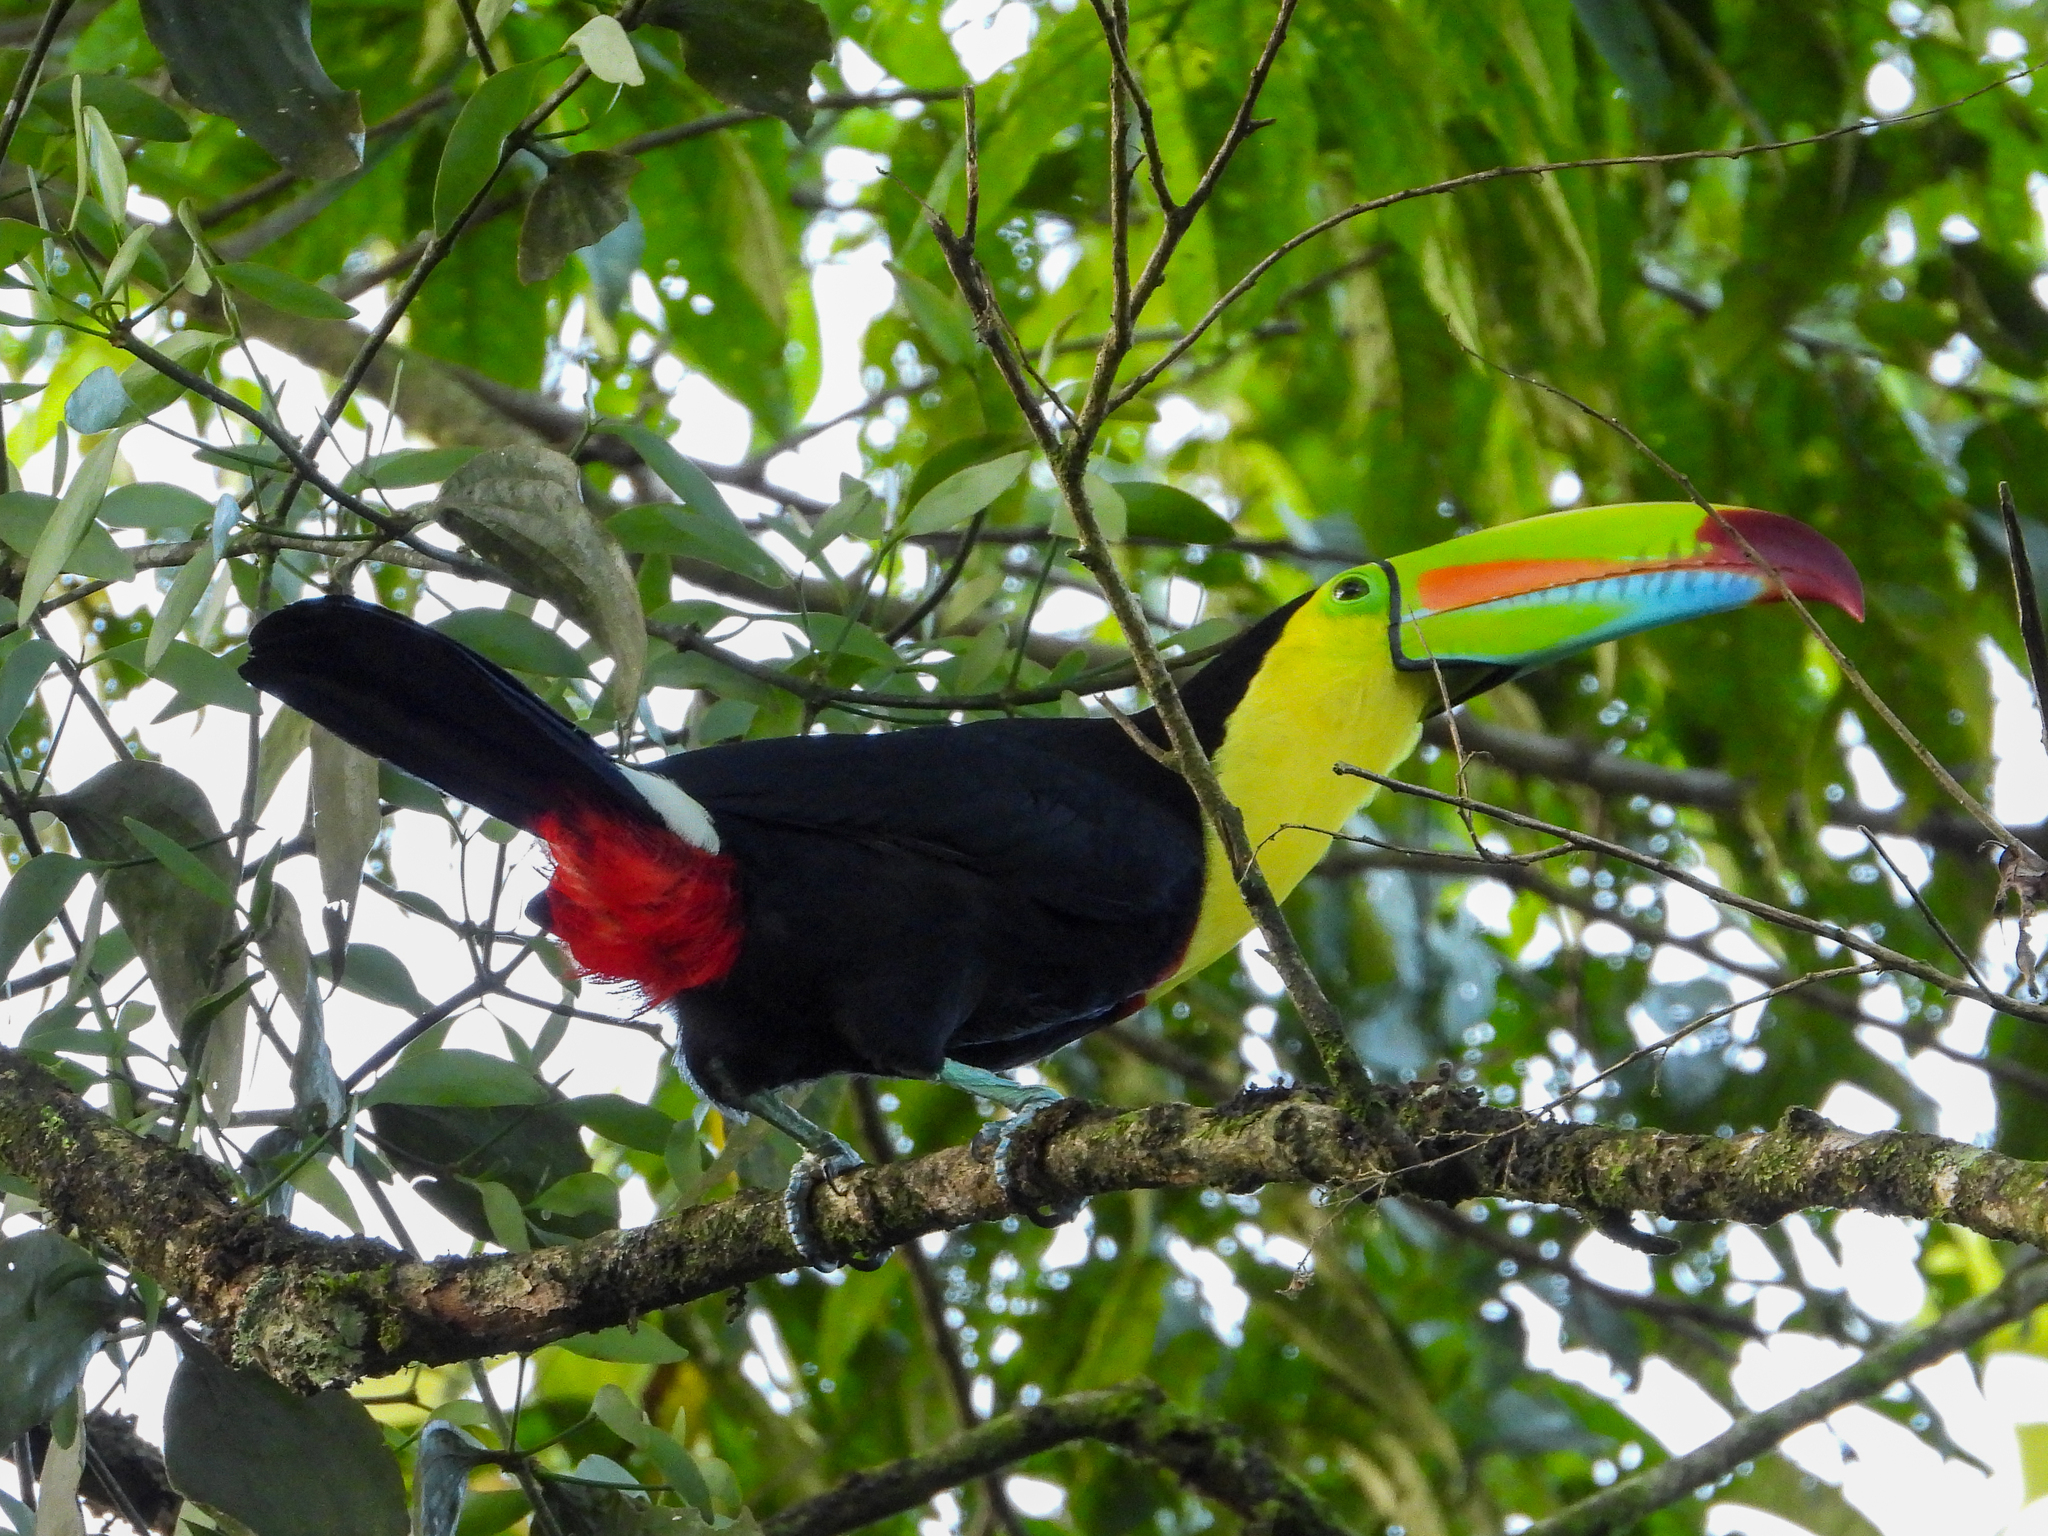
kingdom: Animalia
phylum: Chordata
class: Aves
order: Piciformes
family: Ramphastidae
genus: Ramphastos
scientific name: Ramphastos sulfuratus
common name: Keel-billed toucan
